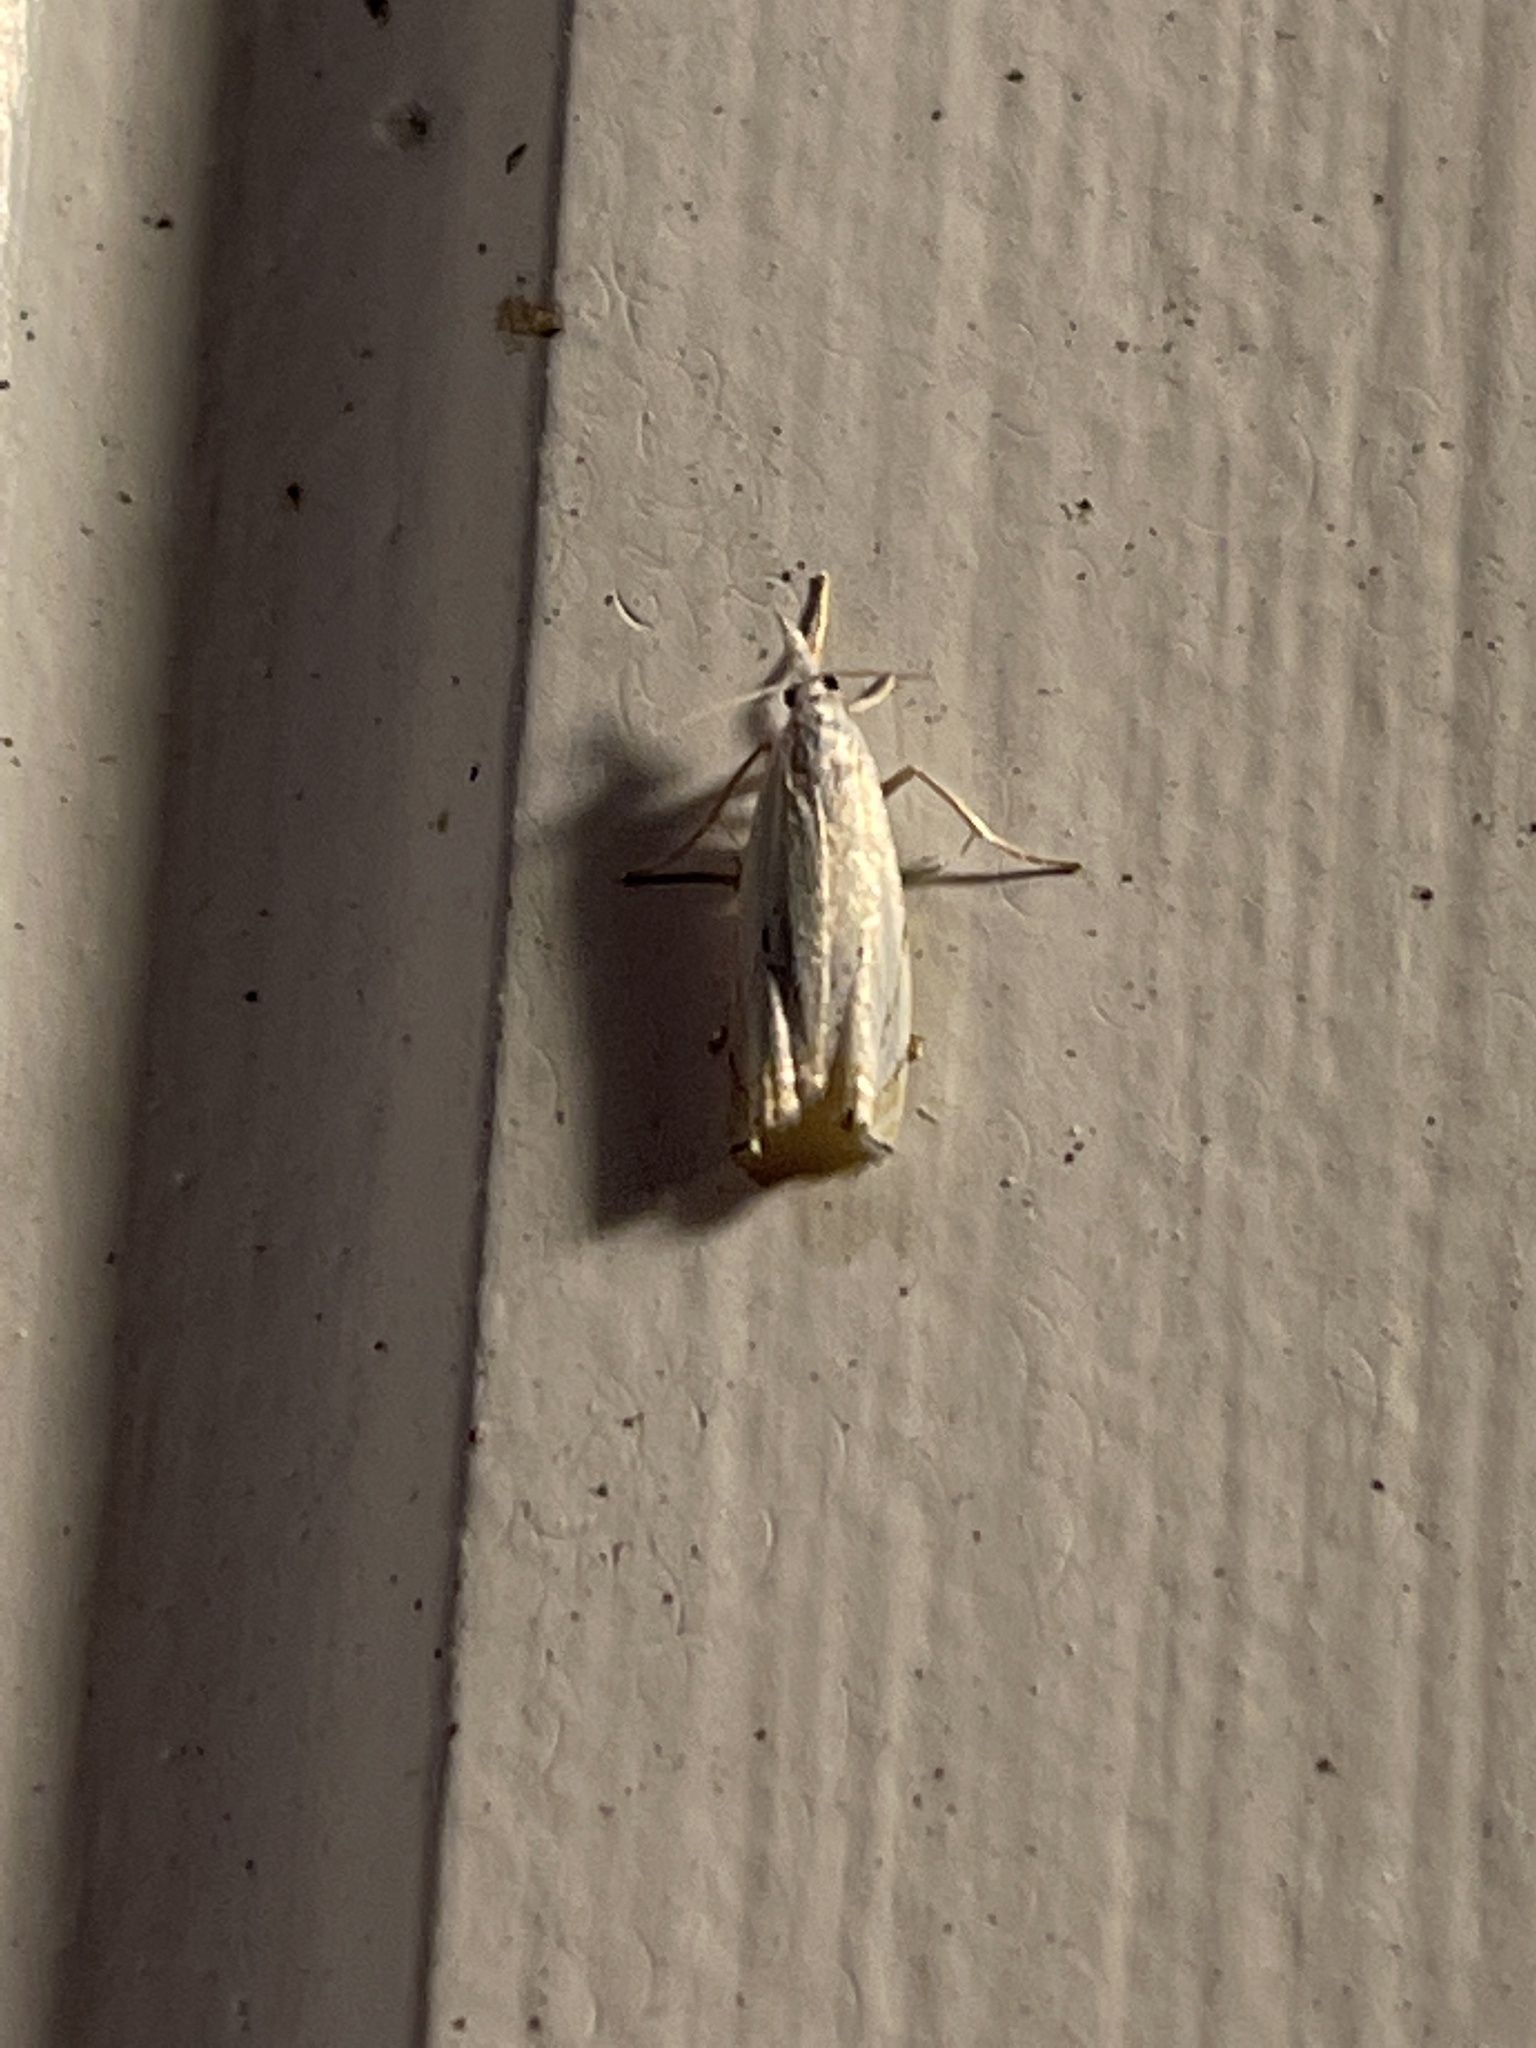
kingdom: Animalia
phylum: Arthropoda
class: Insecta
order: Lepidoptera
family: Crambidae
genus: Crambus
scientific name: Crambus albellus
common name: Small white grass-veneer
